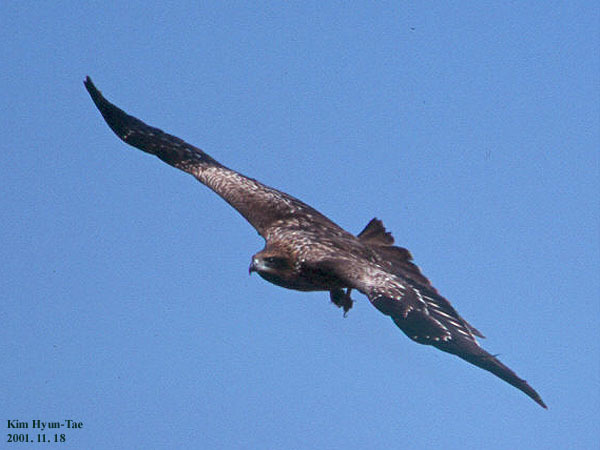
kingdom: Animalia
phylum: Chordata
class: Aves
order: Accipitriformes
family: Accipitridae
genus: Milvus
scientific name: Milvus migrans
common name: Black kite
